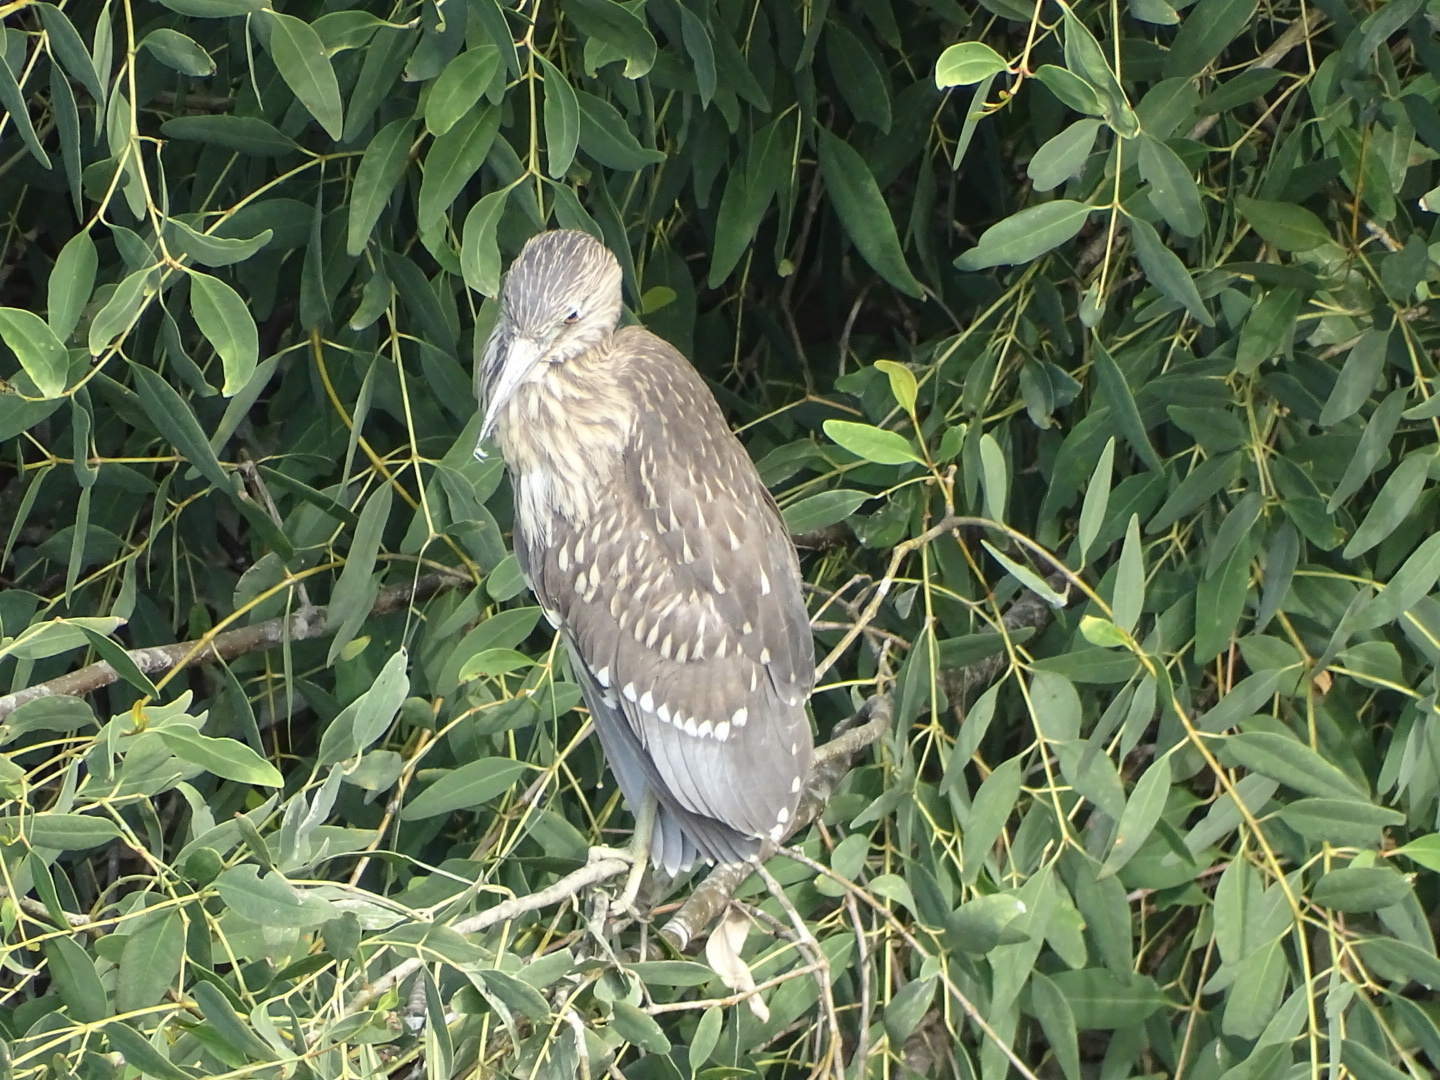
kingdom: Animalia
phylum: Chordata
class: Aves
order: Pelecaniformes
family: Ardeidae
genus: Nycticorax
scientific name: Nycticorax nycticorax
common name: Black-crowned night heron
